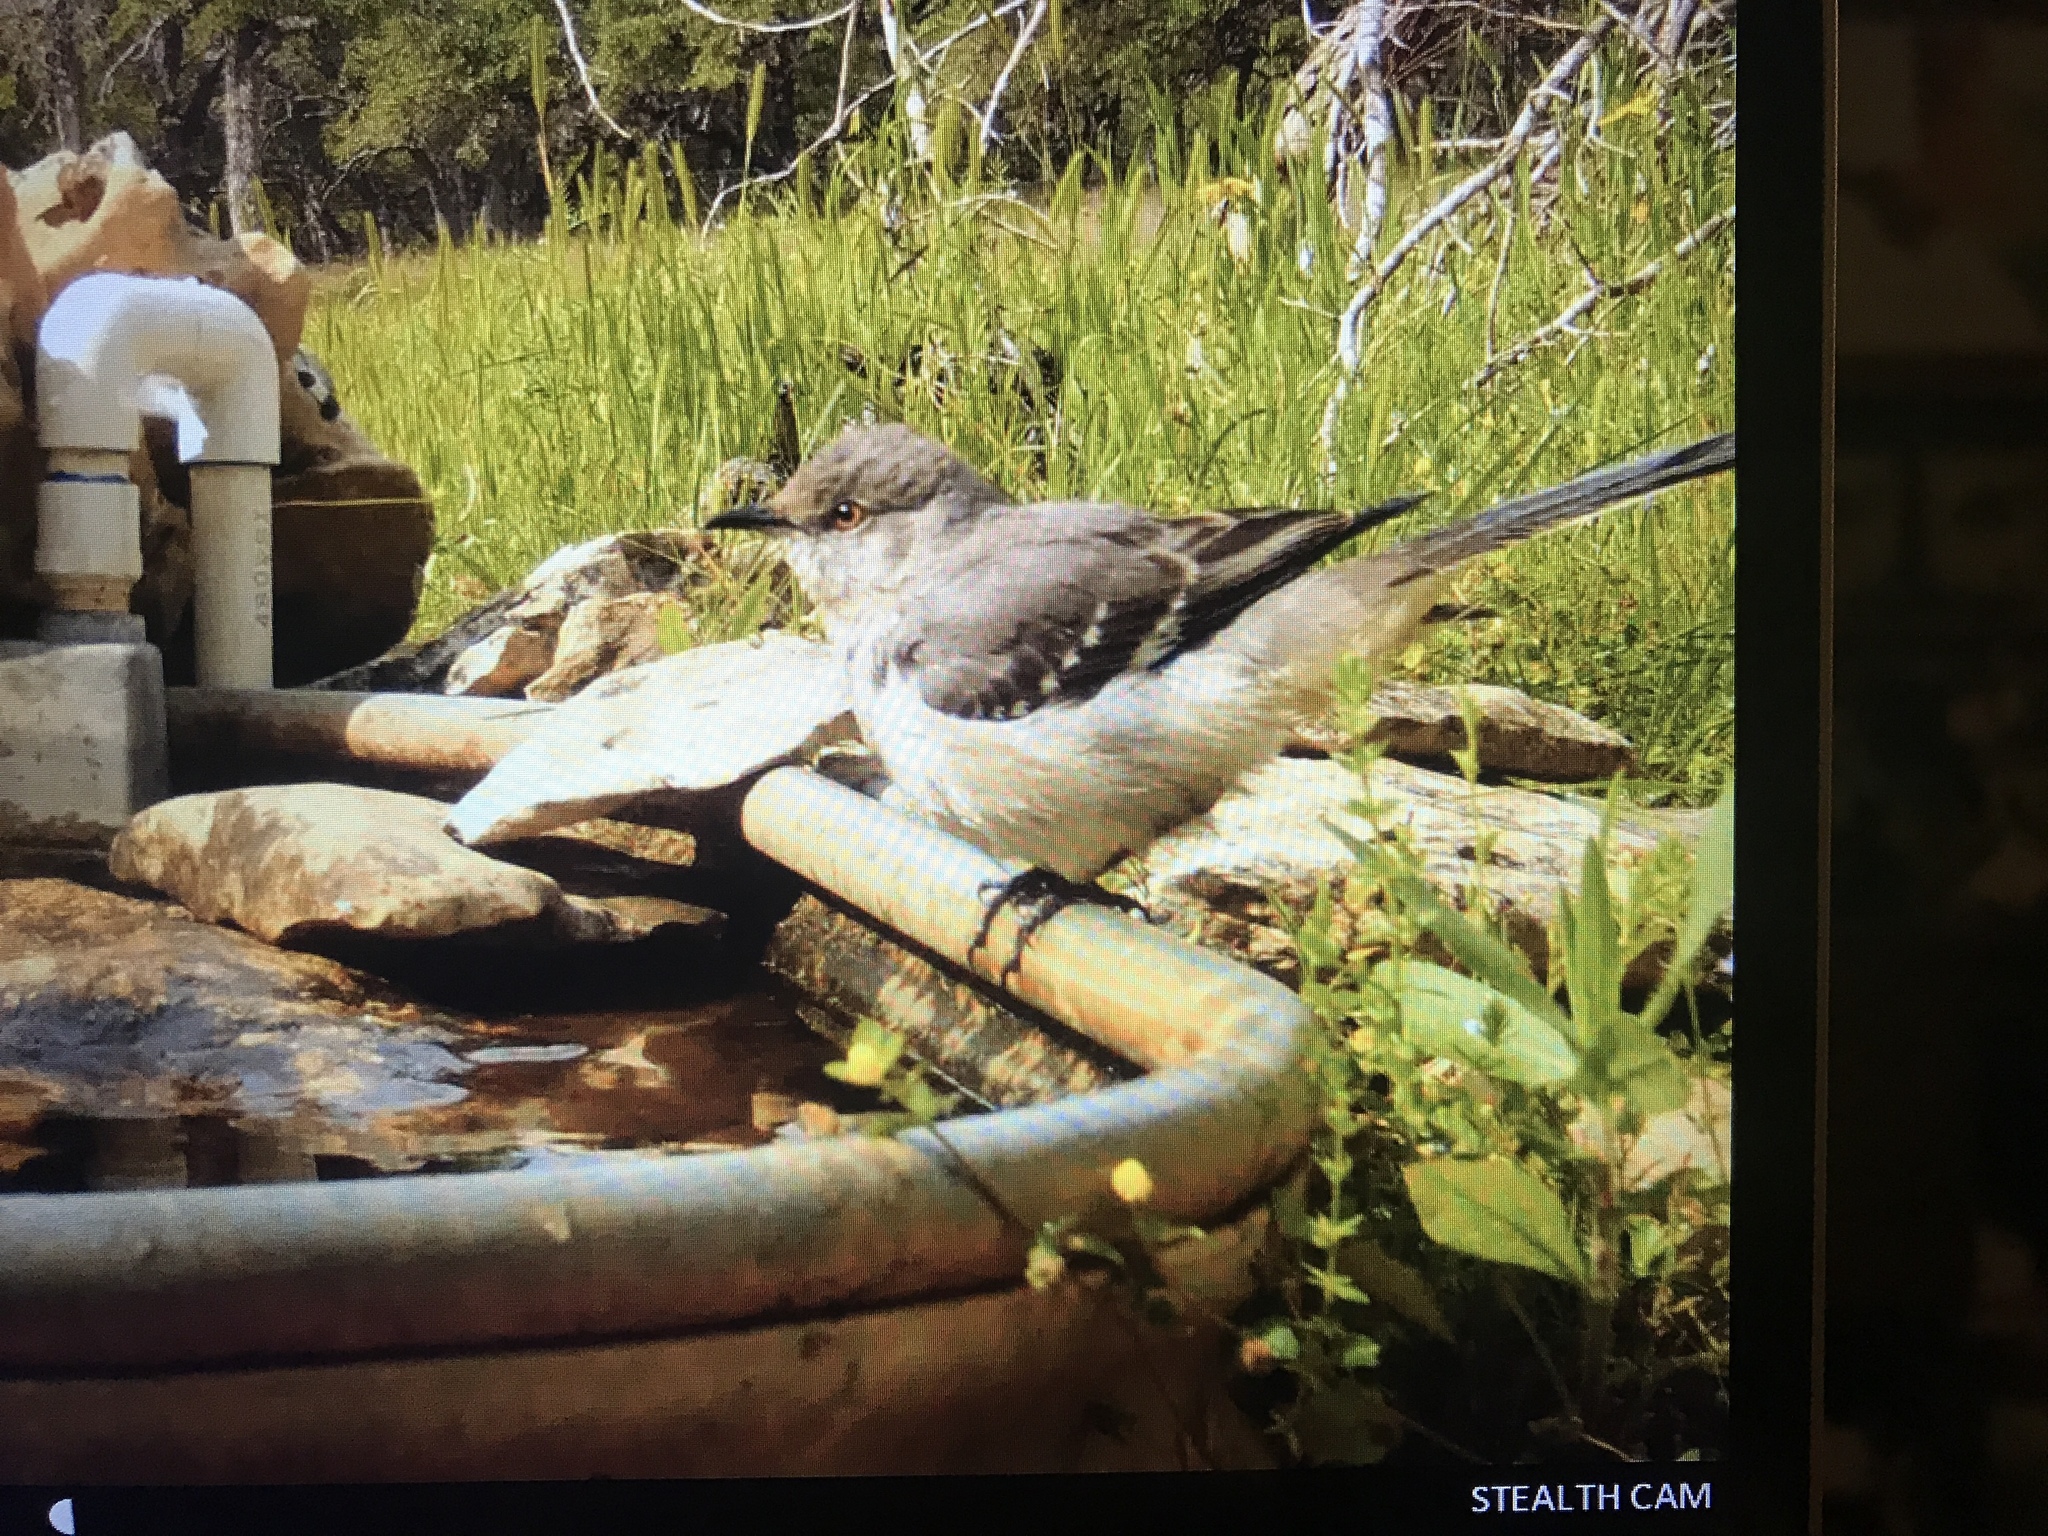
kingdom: Animalia
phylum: Chordata
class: Aves
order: Passeriformes
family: Mimidae
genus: Mimus
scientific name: Mimus polyglottos
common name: Northern mockingbird
